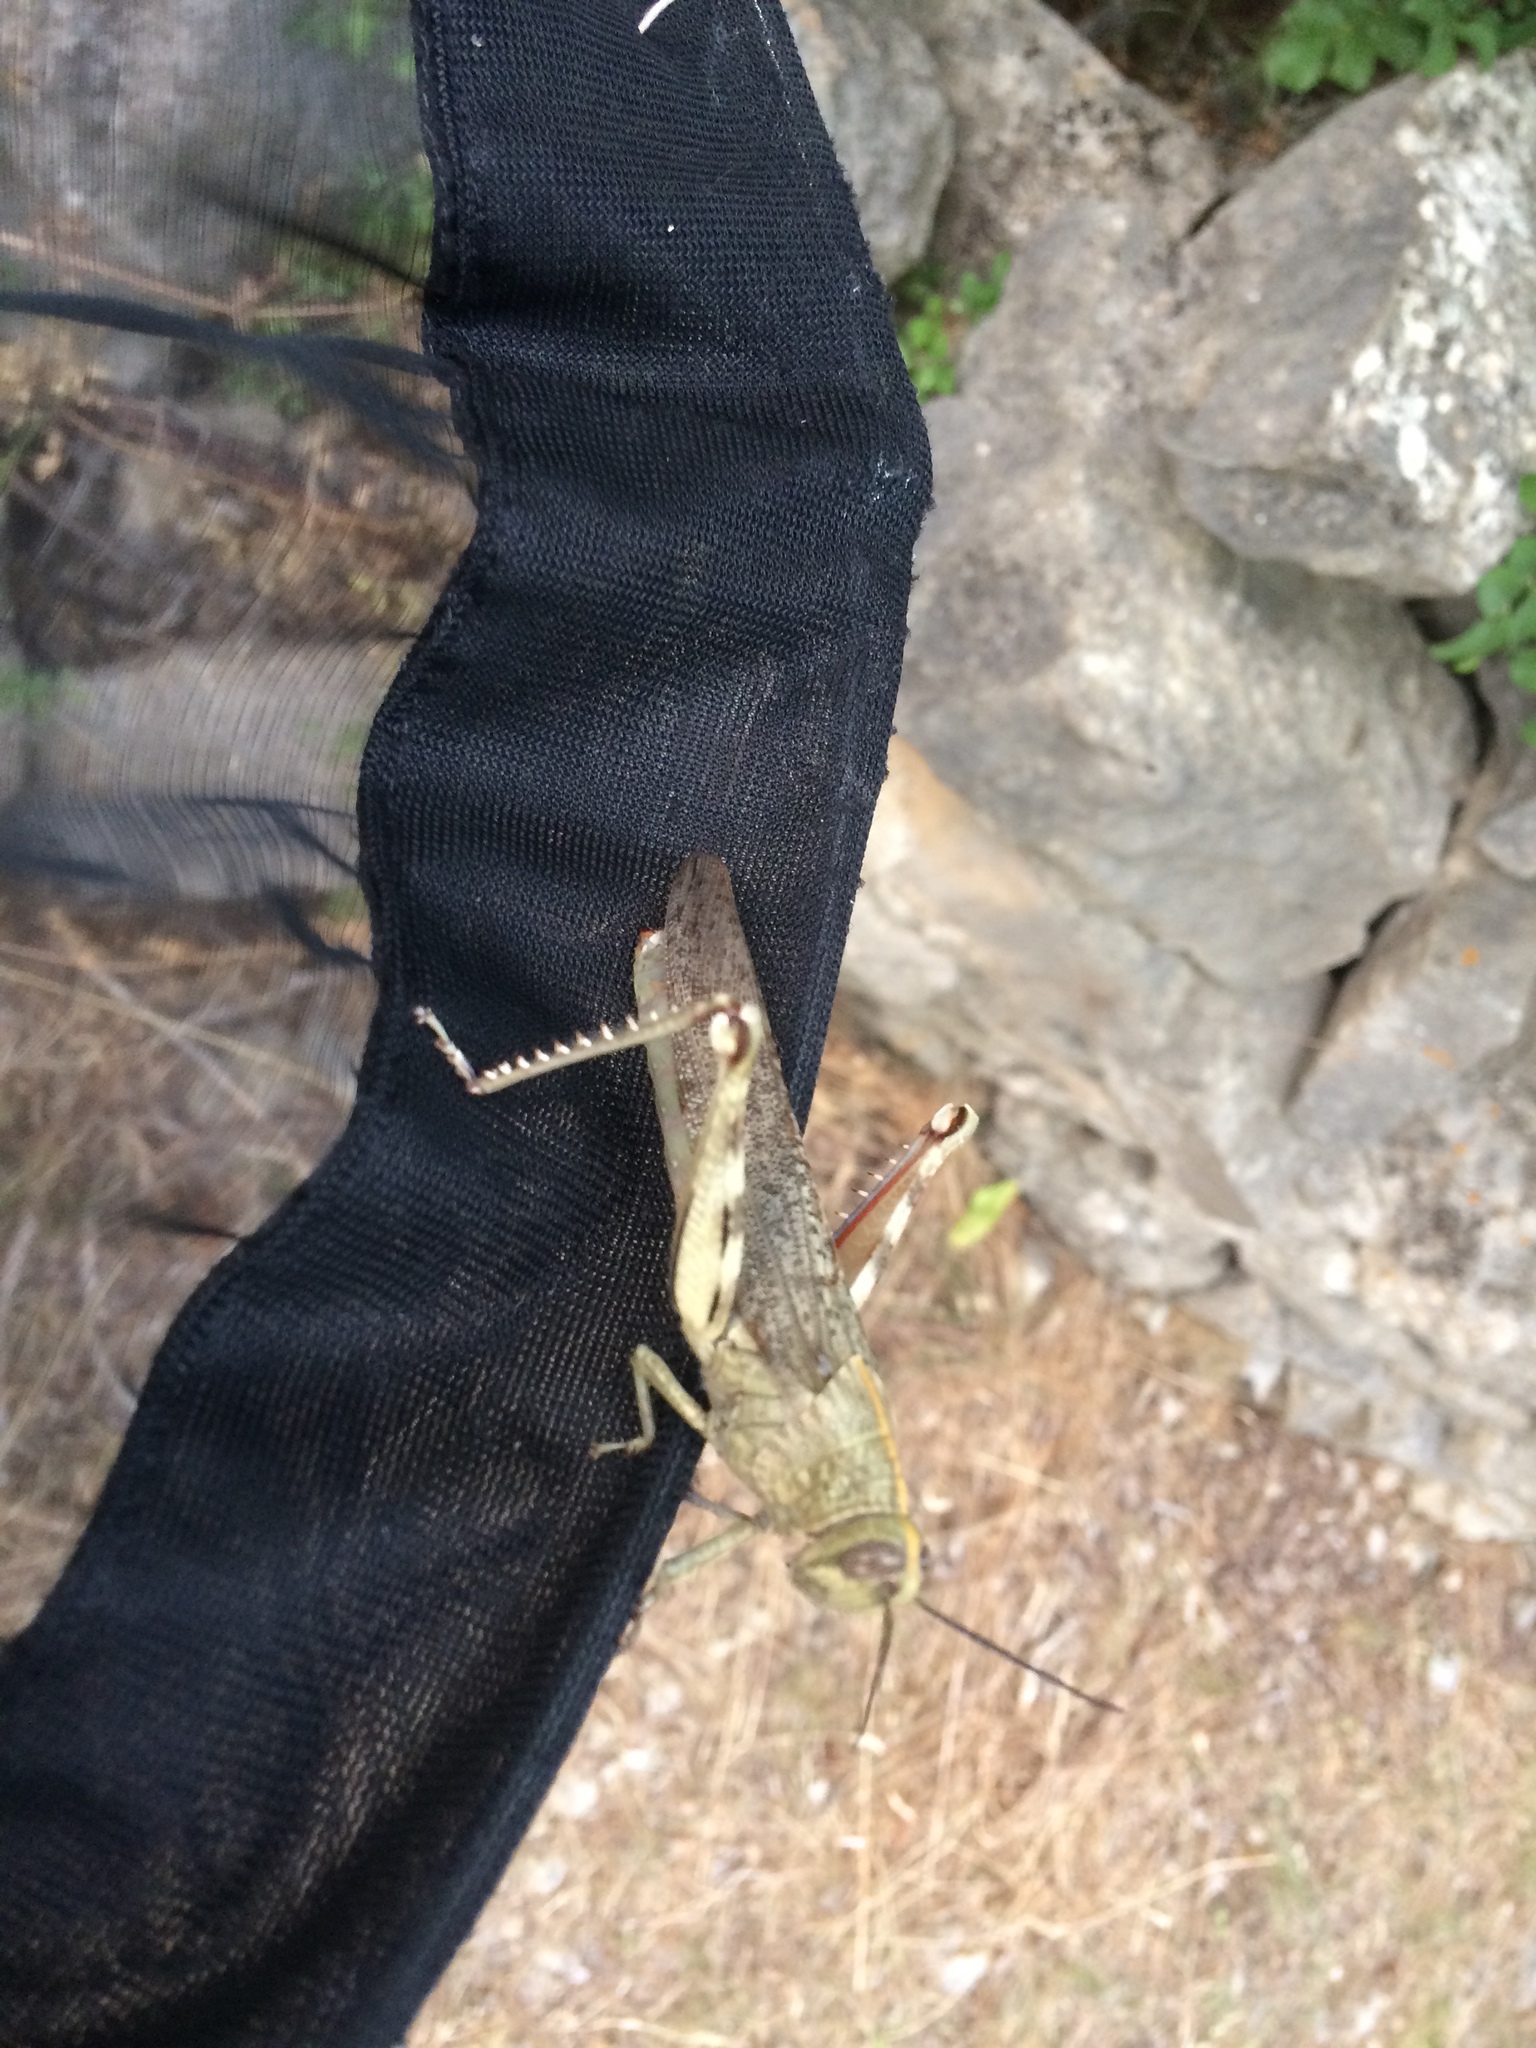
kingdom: Animalia
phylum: Arthropoda
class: Insecta
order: Orthoptera
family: Acrididae
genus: Anacridium
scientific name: Anacridium aegyptium
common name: Egyptian grasshopper
